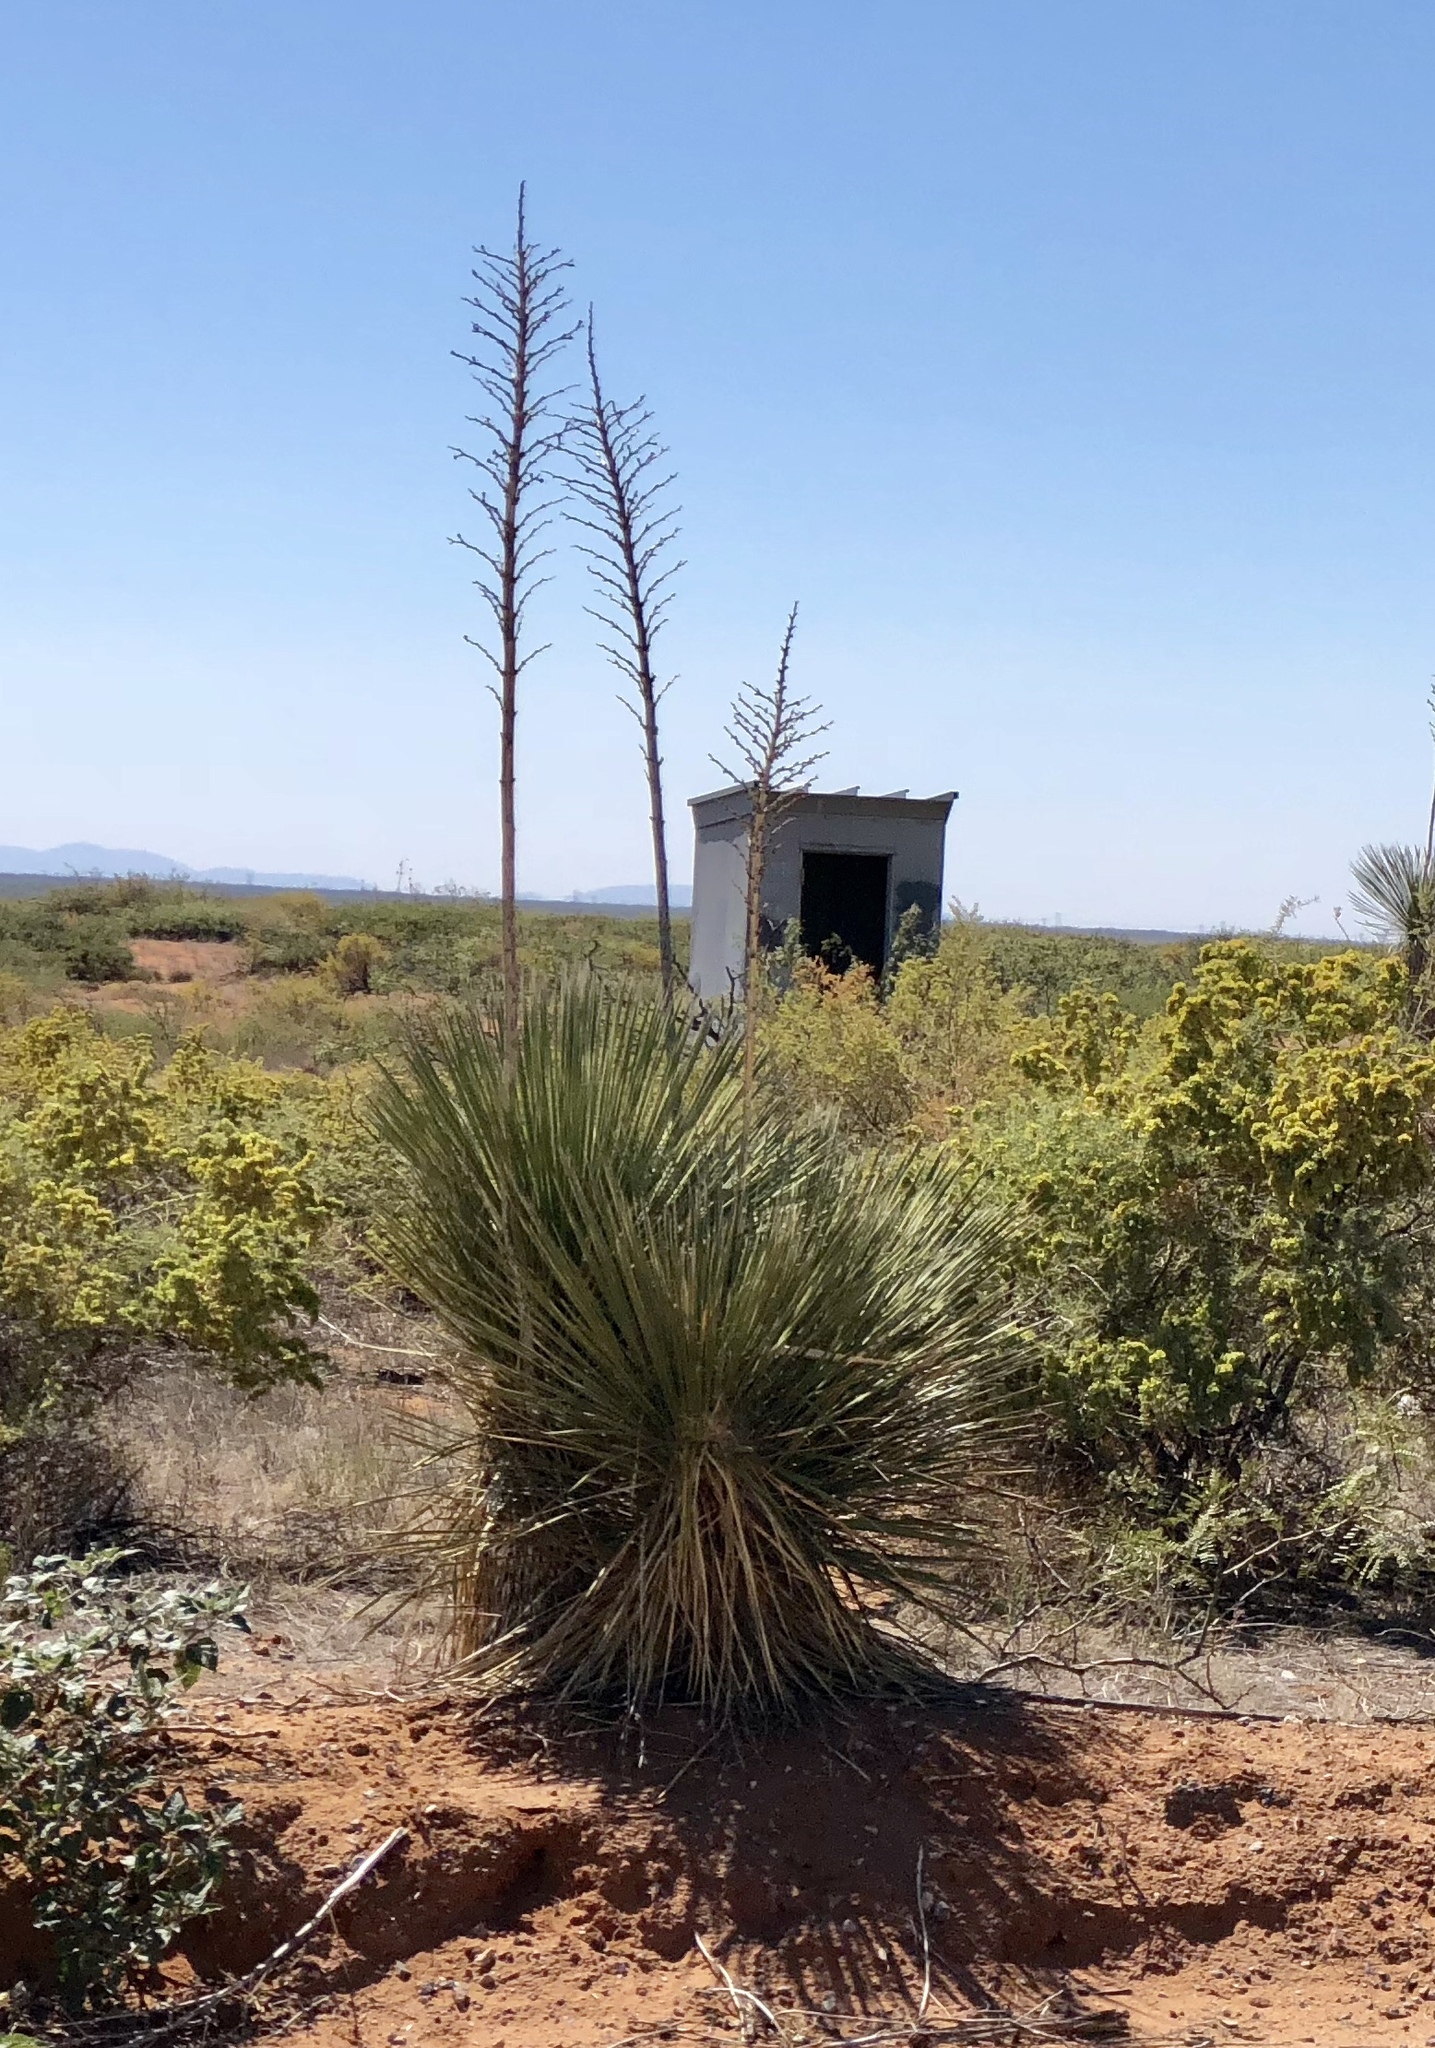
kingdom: Plantae
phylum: Tracheophyta
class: Liliopsida
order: Asparagales
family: Asparagaceae
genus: Yucca
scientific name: Yucca elata
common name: Palmella
